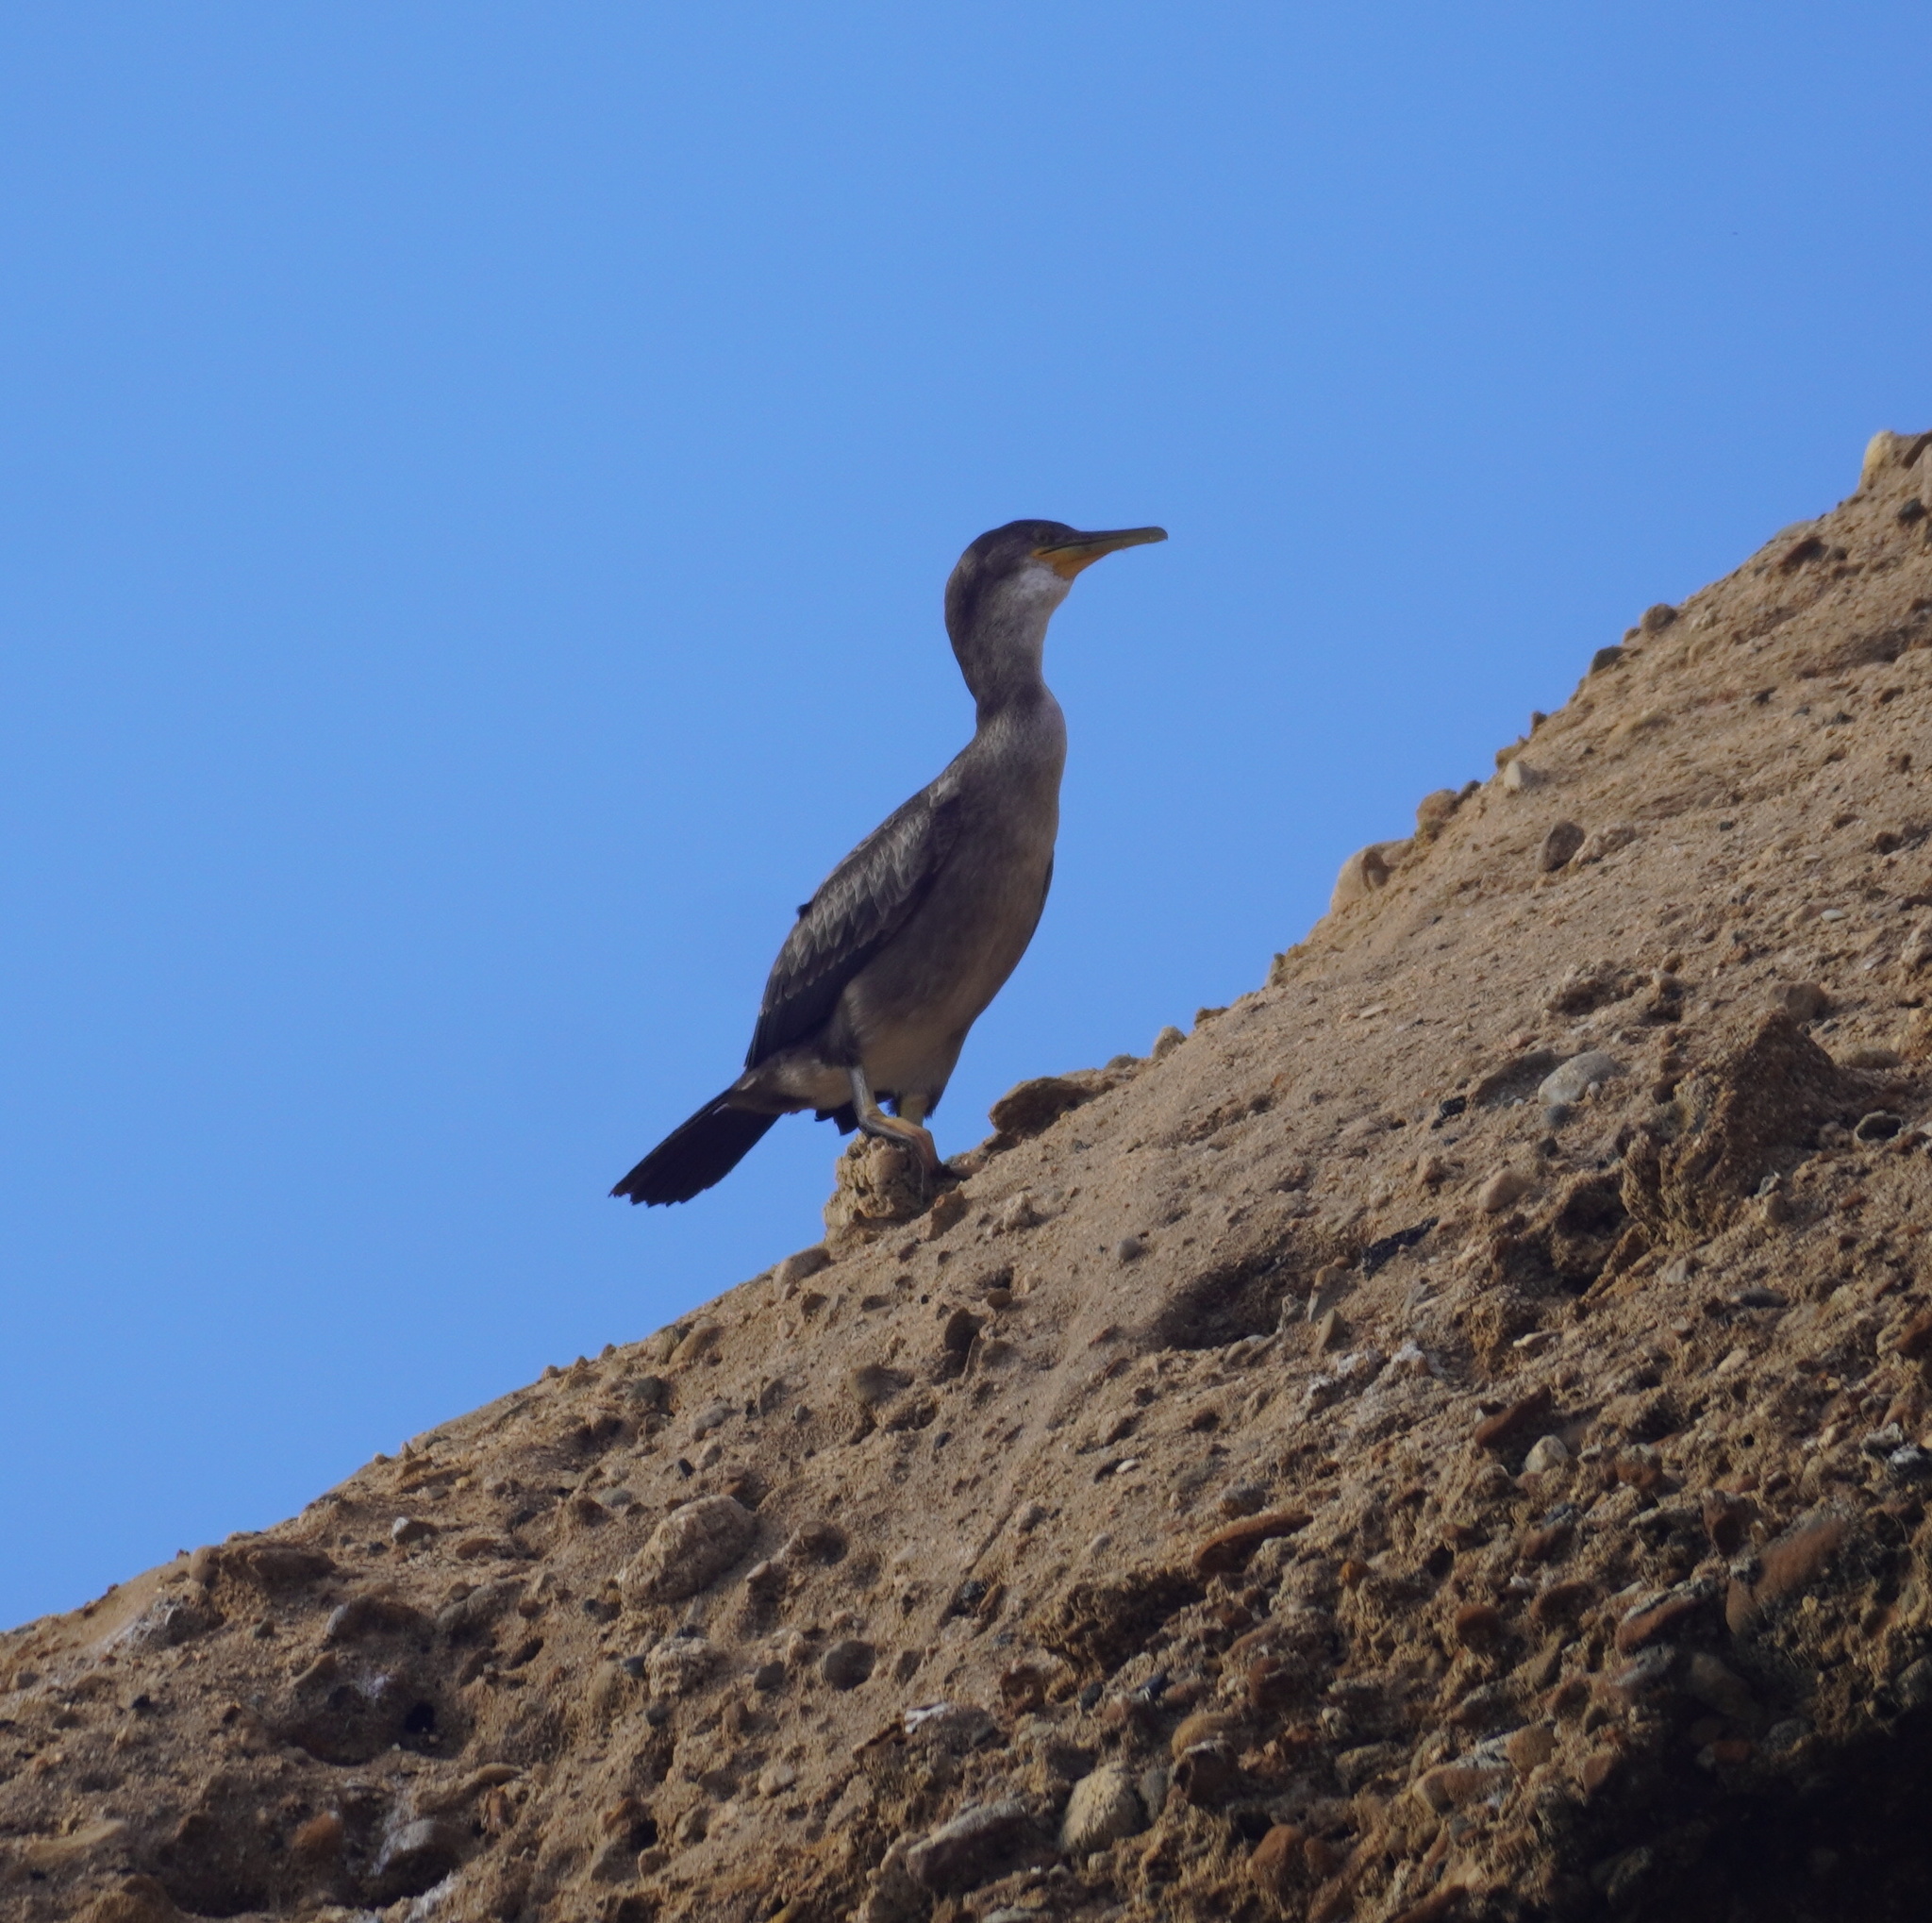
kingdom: Animalia
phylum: Chordata
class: Aves
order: Suliformes
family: Phalacrocoracidae
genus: Phalacrocorax
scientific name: Phalacrocorax aristotelis
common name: European shag
